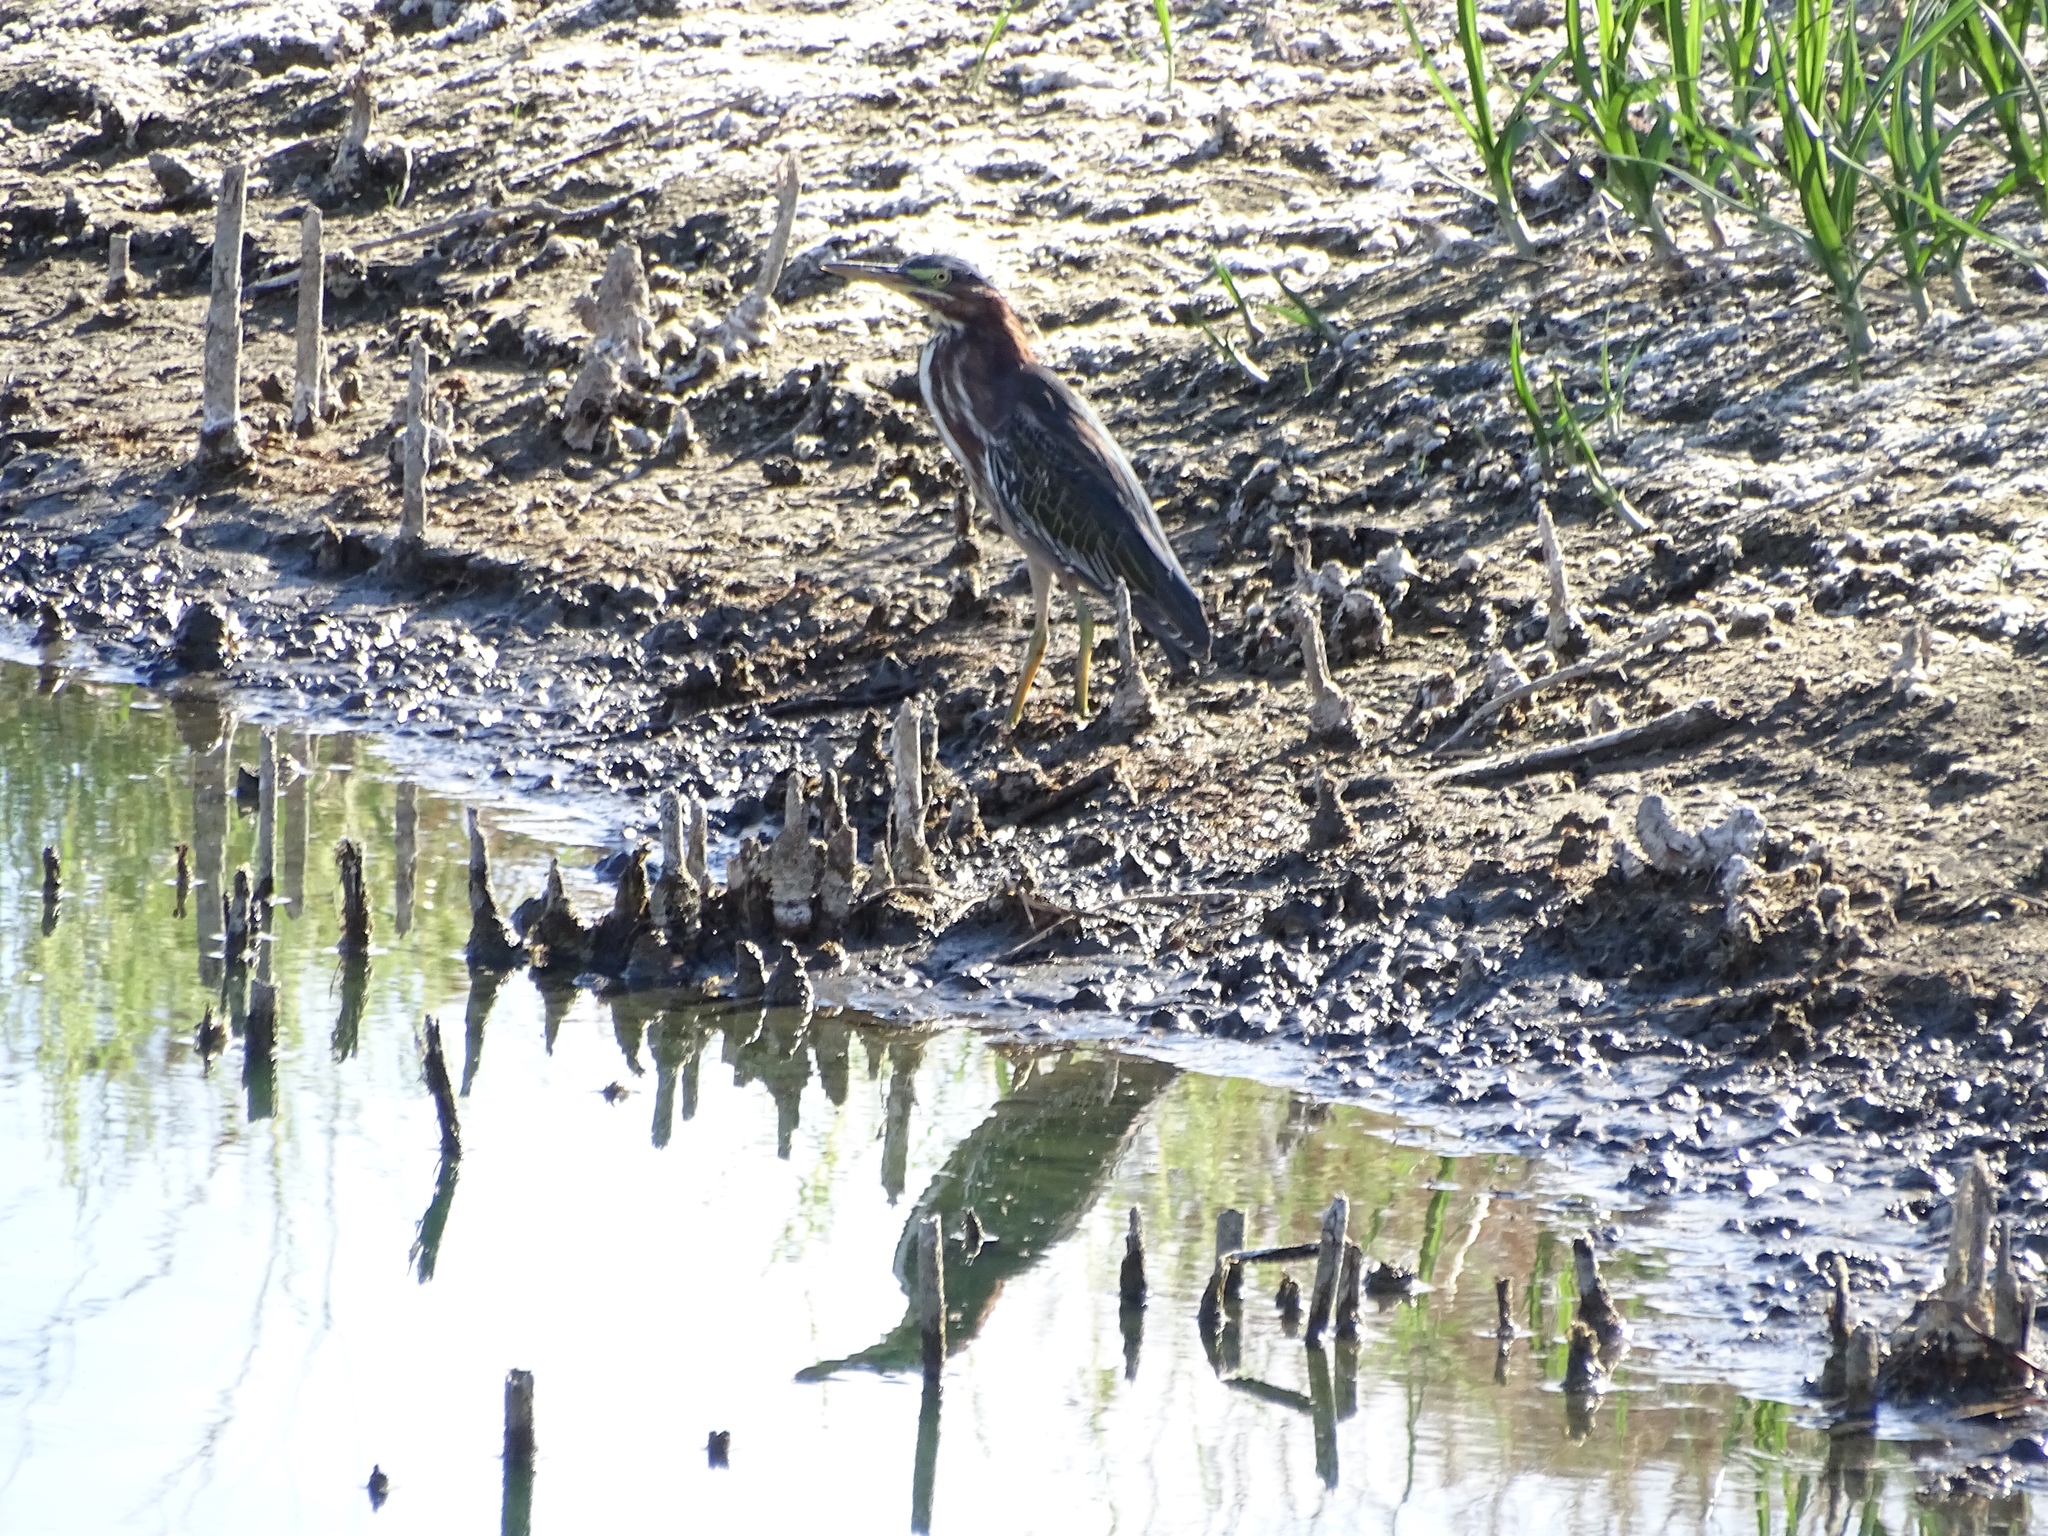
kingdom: Animalia
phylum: Chordata
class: Aves
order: Pelecaniformes
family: Ardeidae
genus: Butorides
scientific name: Butorides virescens
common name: Green heron
